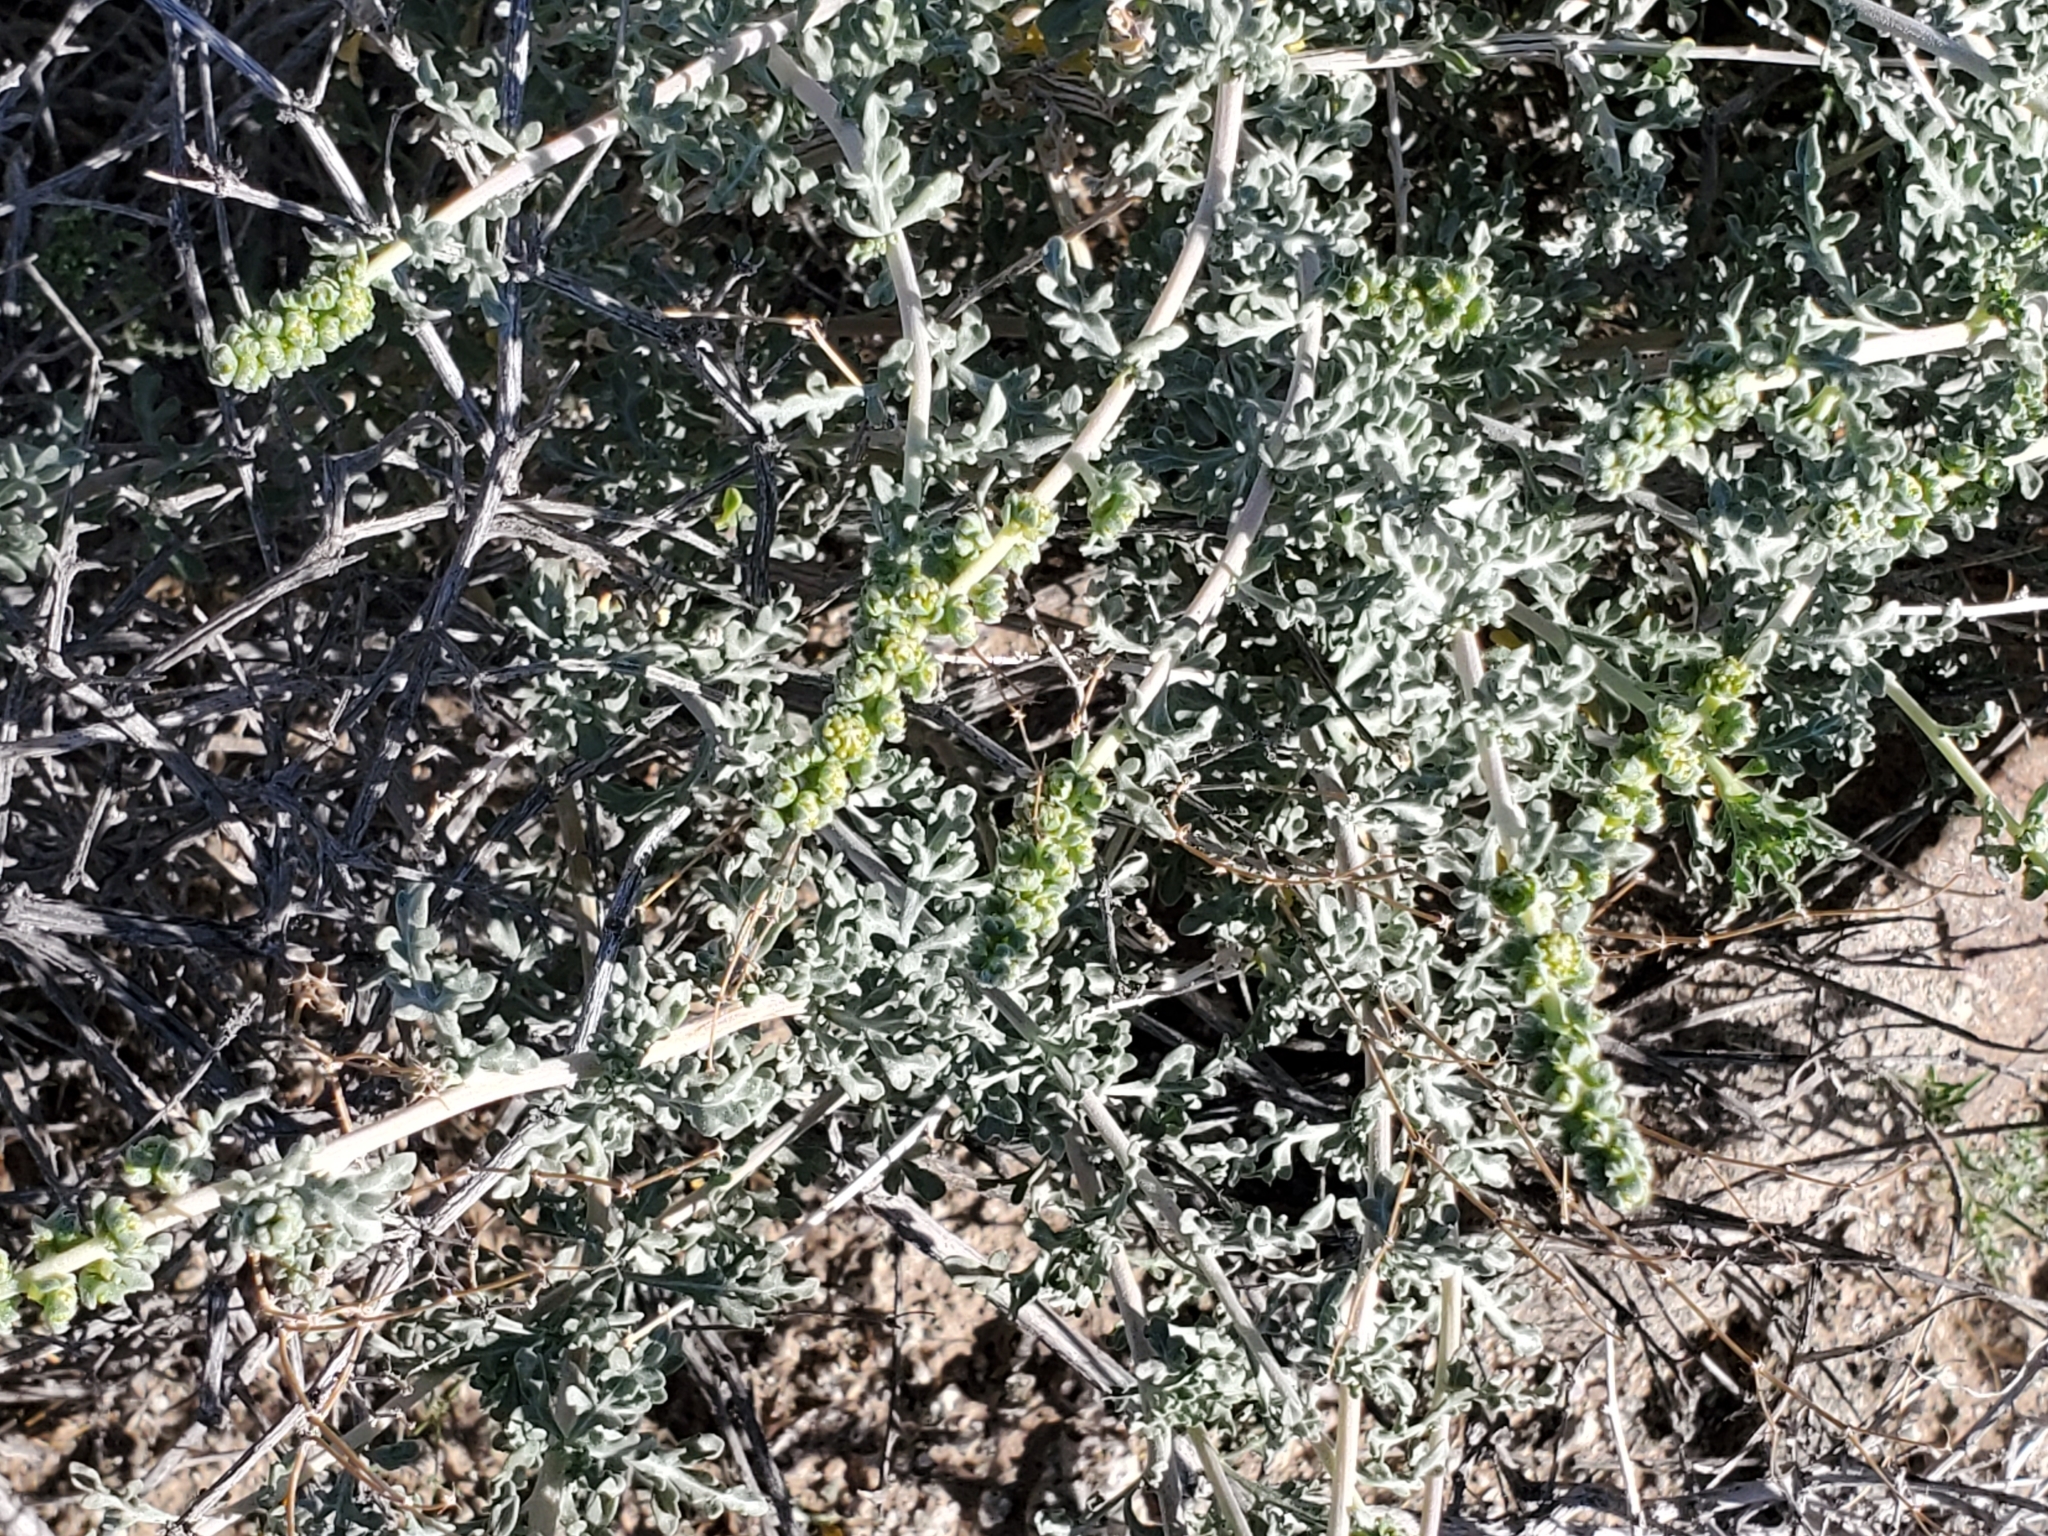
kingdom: Plantae
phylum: Tracheophyta
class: Magnoliopsida
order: Asterales
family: Asteraceae
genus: Ambrosia
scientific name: Ambrosia dumosa
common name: Bur-sage
